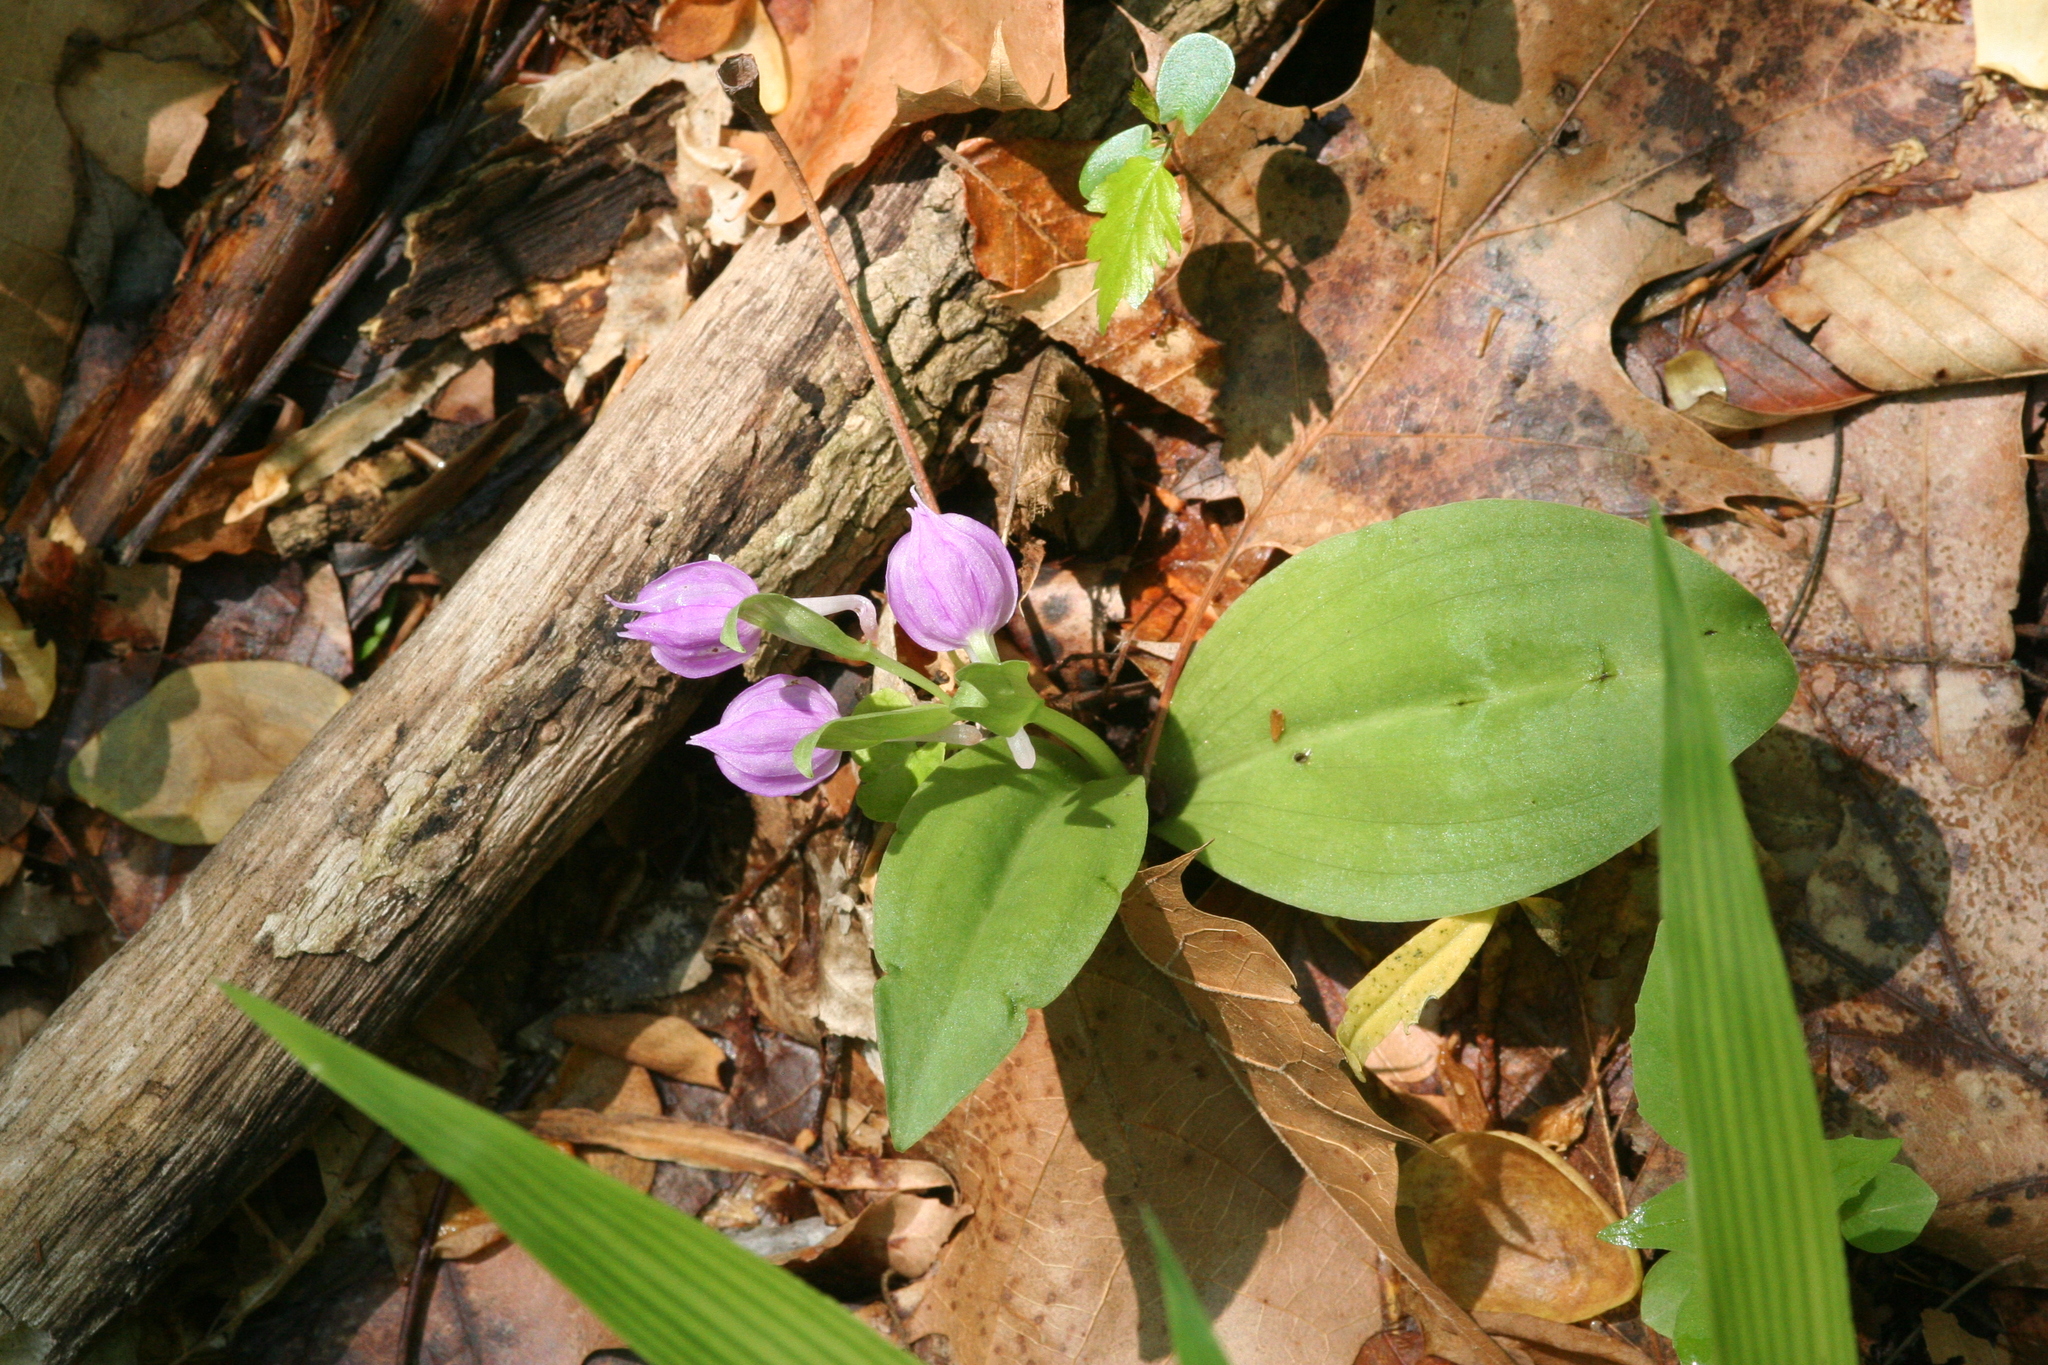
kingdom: Plantae
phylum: Tracheophyta
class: Liliopsida
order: Asparagales
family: Orchidaceae
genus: Galearis
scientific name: Galearis spectabilis
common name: Purple-hooded orchis
